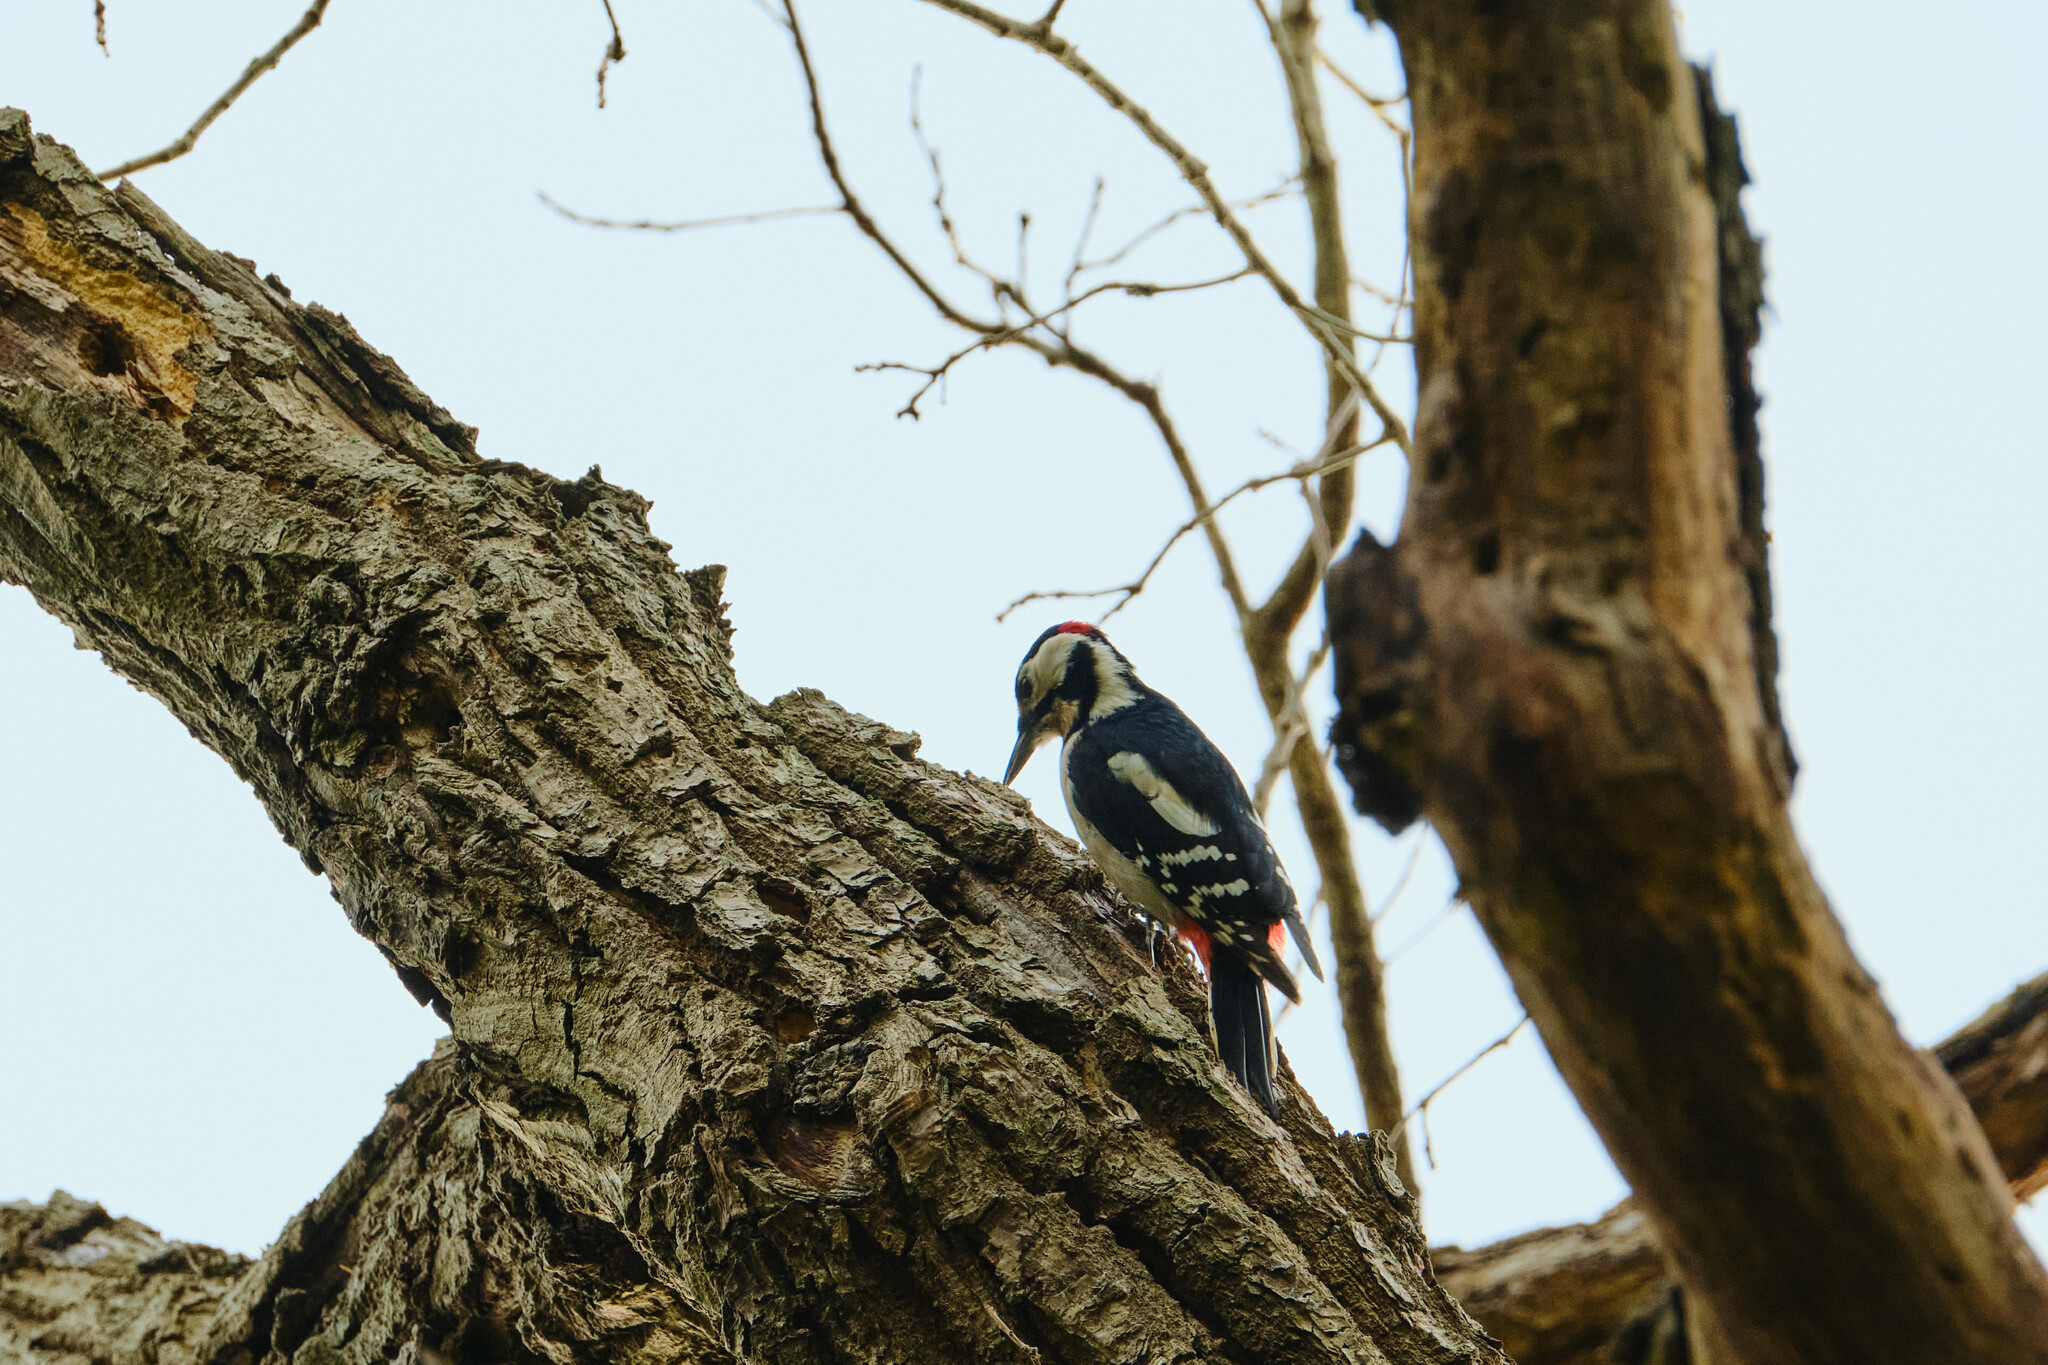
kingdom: Animalia
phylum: Chordata
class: Aves
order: Piciformes
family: Picidae
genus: Dendrocopos
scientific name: Dendrocopos major
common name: Great spotted woodpecker
